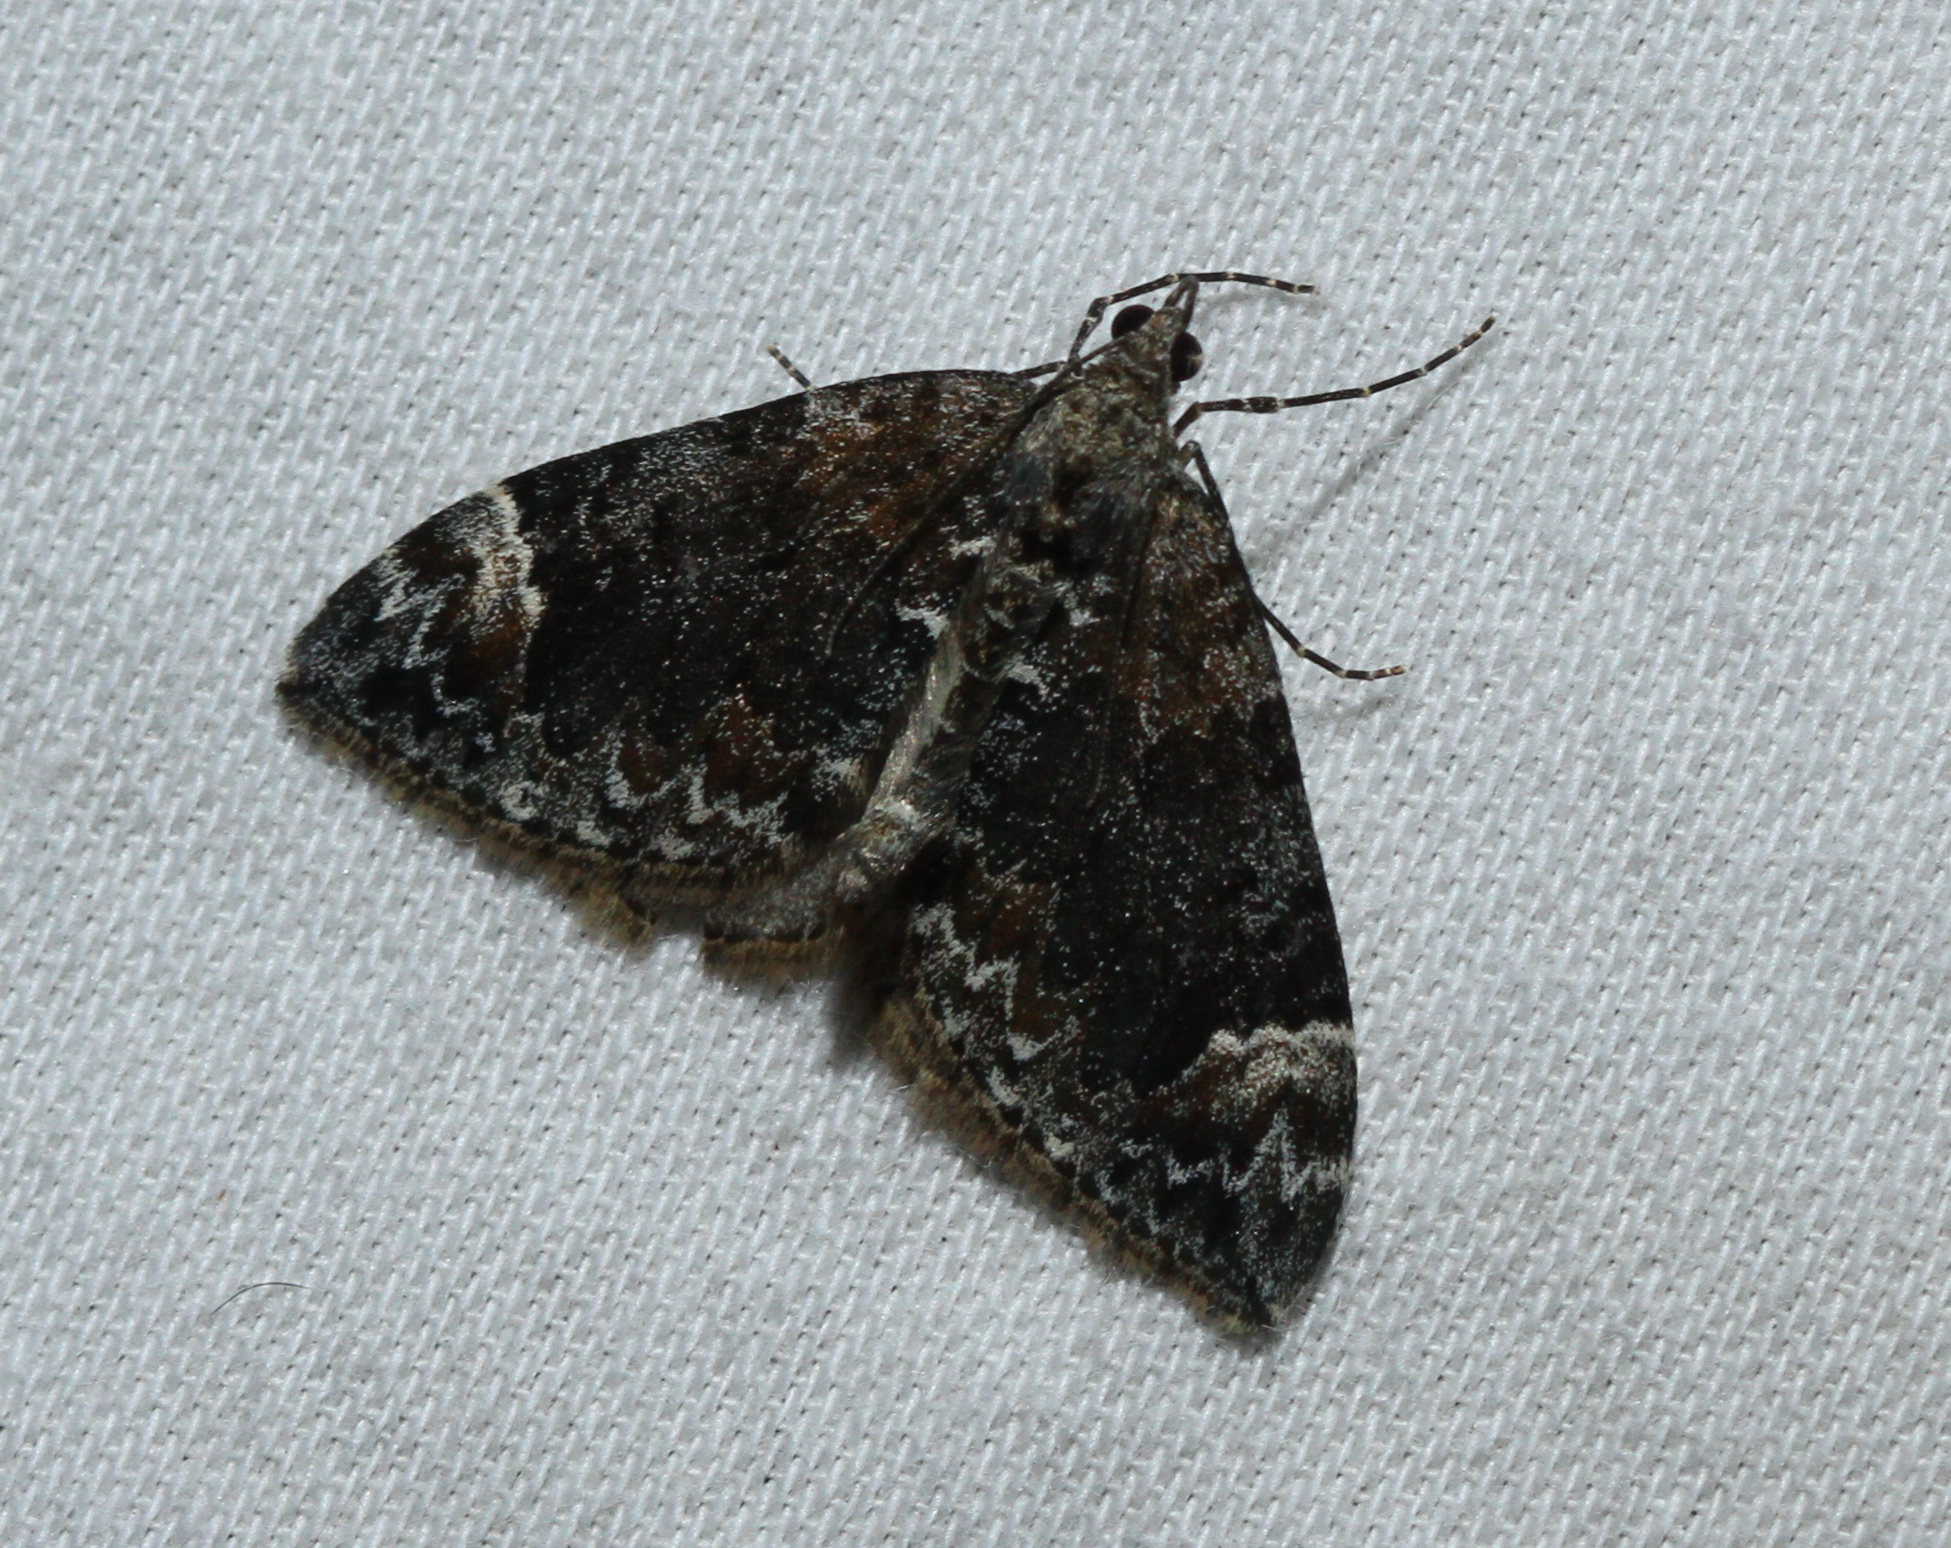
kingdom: Animalia
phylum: Arthropoda
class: Insecta
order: Lepidoptera
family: Geometridae
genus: Dysstroma
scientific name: Dysstroma citrata
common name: Dark marbled carpet
